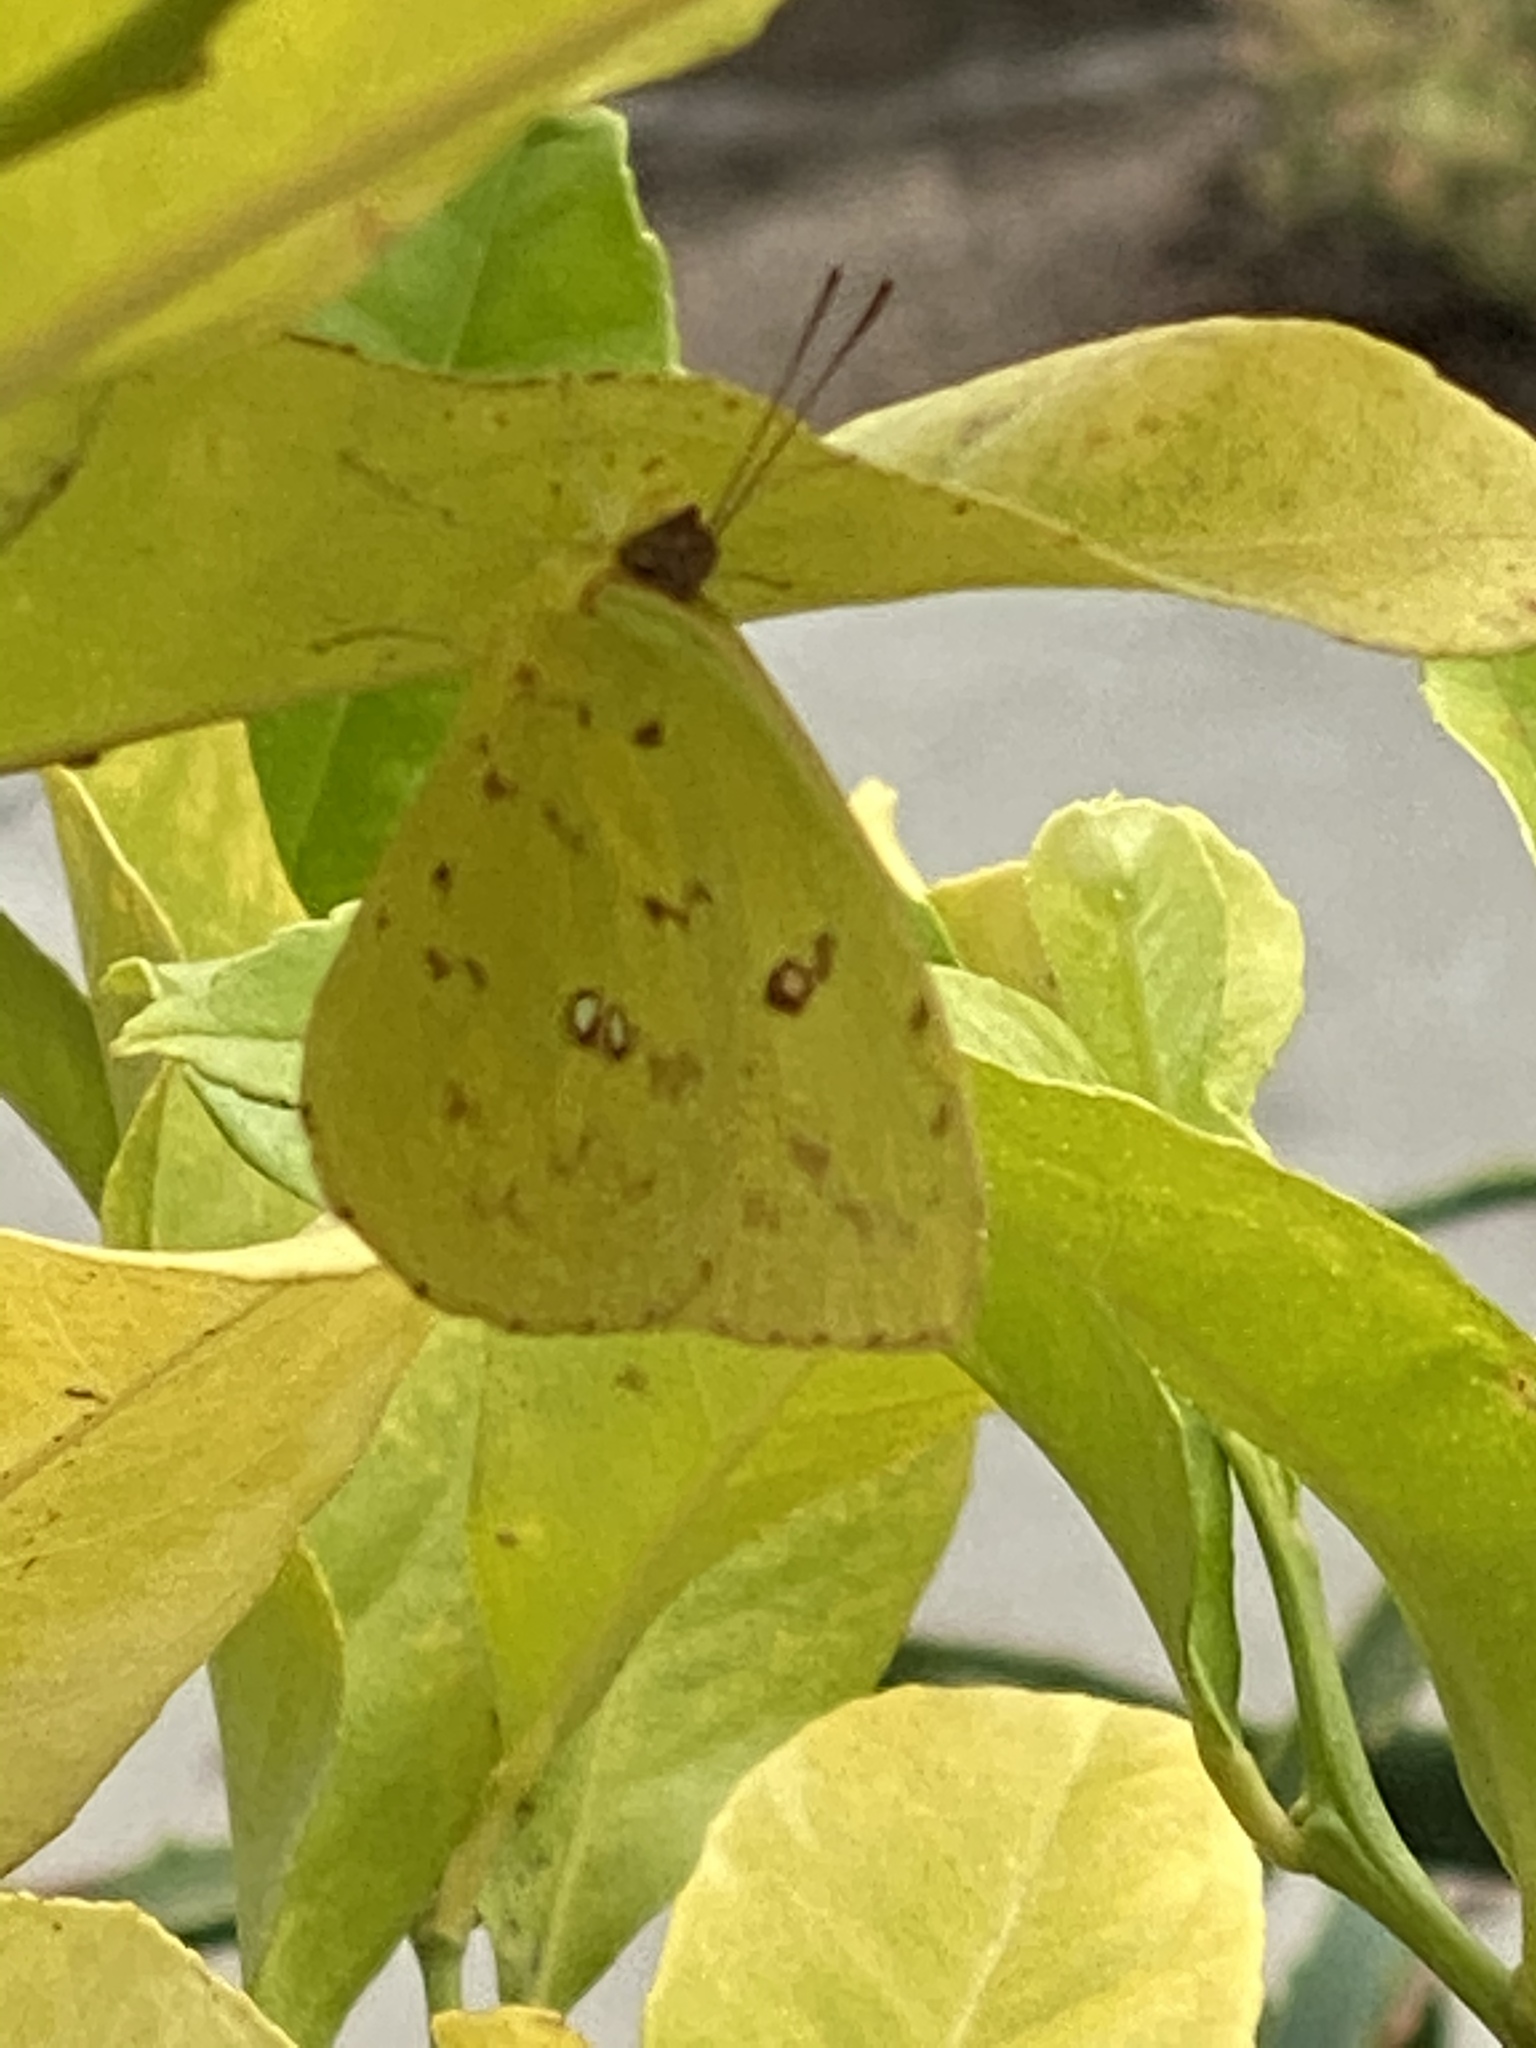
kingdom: Animalia
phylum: Arthropoda
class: Insecta
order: Lepidoptera
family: Pieridae
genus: Phoebis
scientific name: Phoebis sennae
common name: Cloudless sulphur
